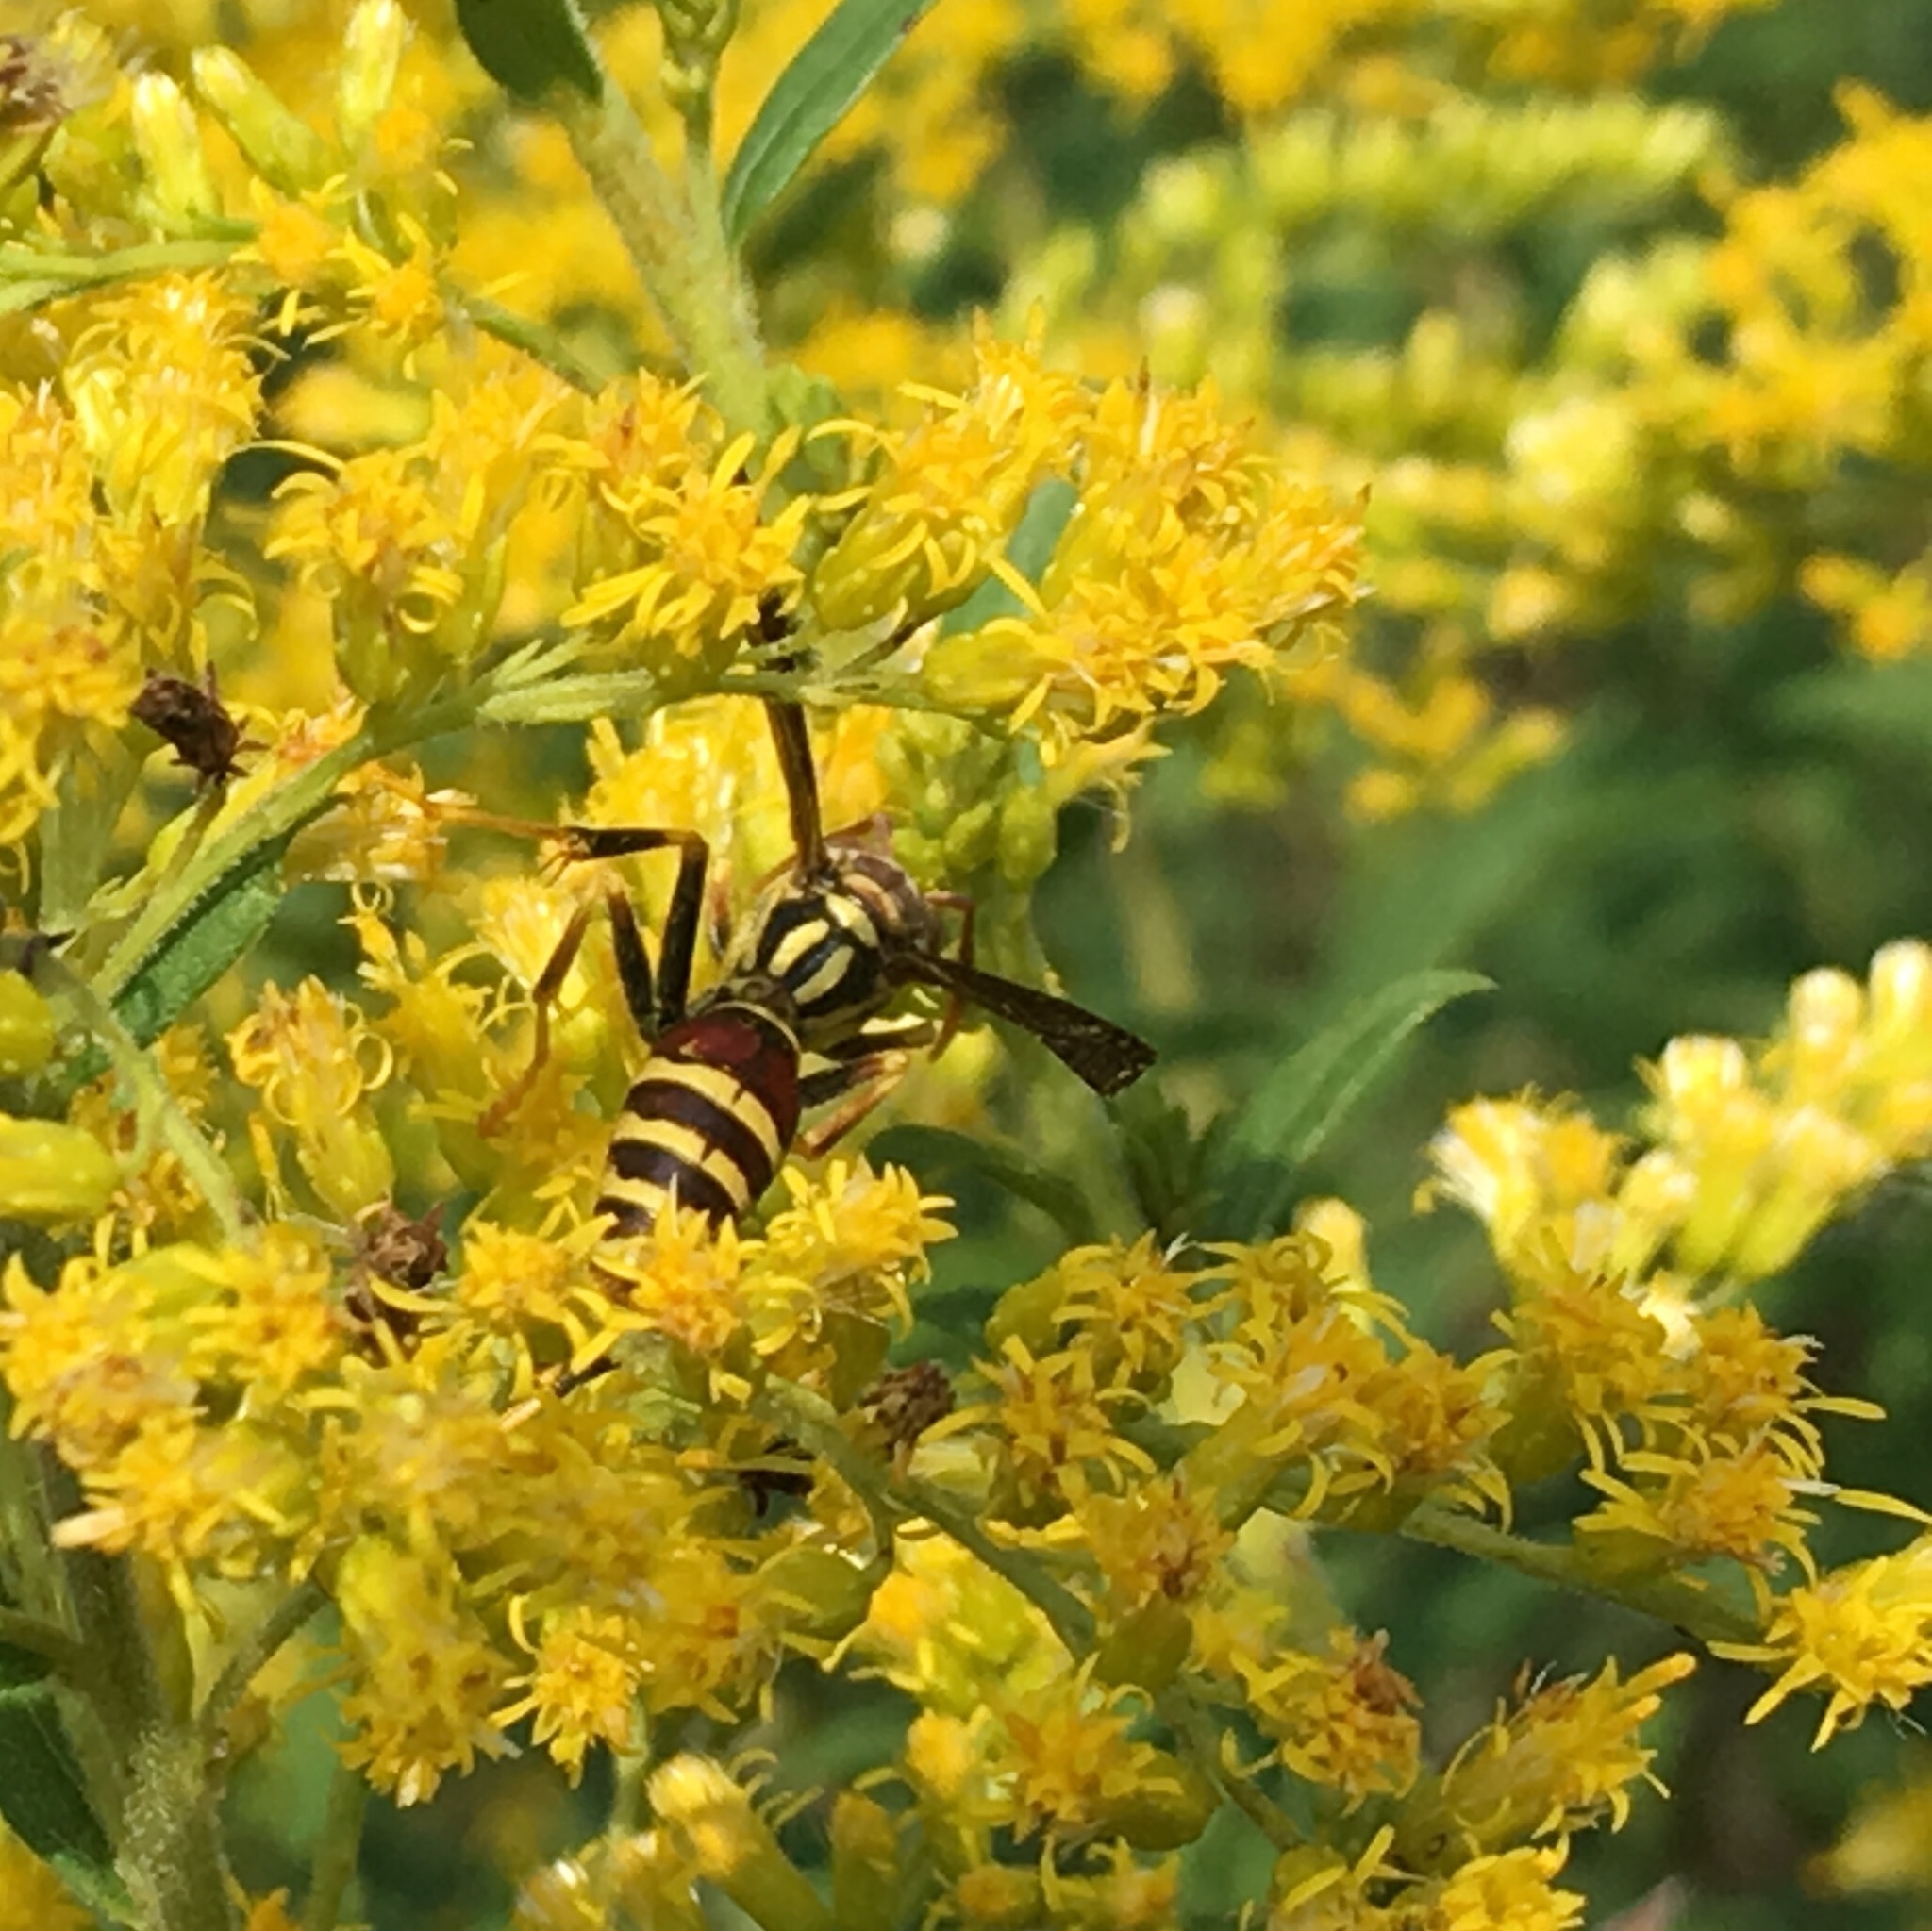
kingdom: Animalia
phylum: Arthropoda
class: Insecta
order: Hymenoptera
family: Eumenidae
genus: Polistes
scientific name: Polistes exclamans
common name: Paper wasp
